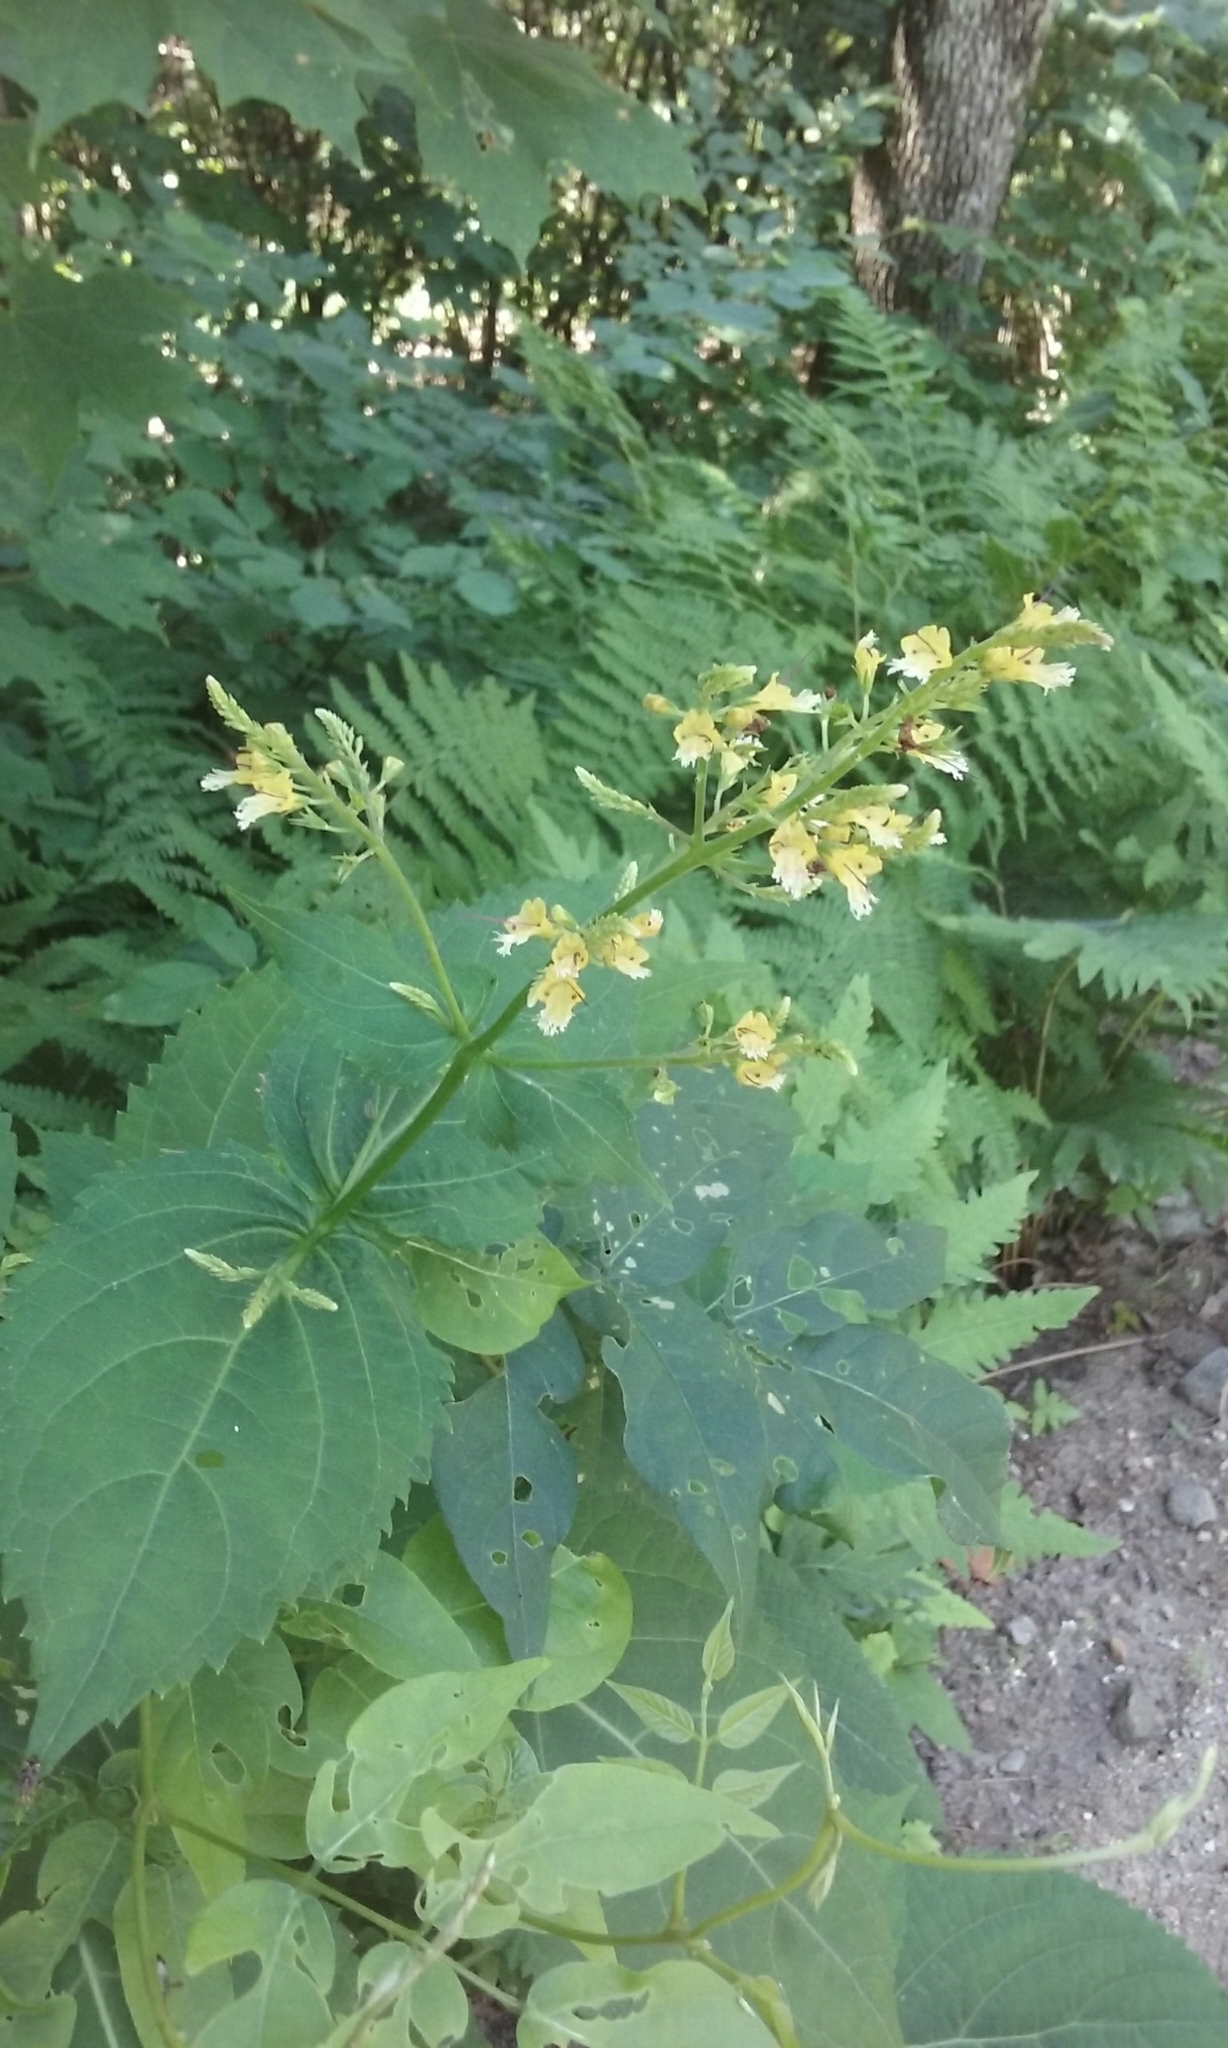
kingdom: Plantae
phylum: Tracheophyta
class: Magnoliopsida
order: Lamiales
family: Lamiaceae
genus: Collinsonia
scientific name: Collinsonia canadensis
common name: Northern horsebalm
